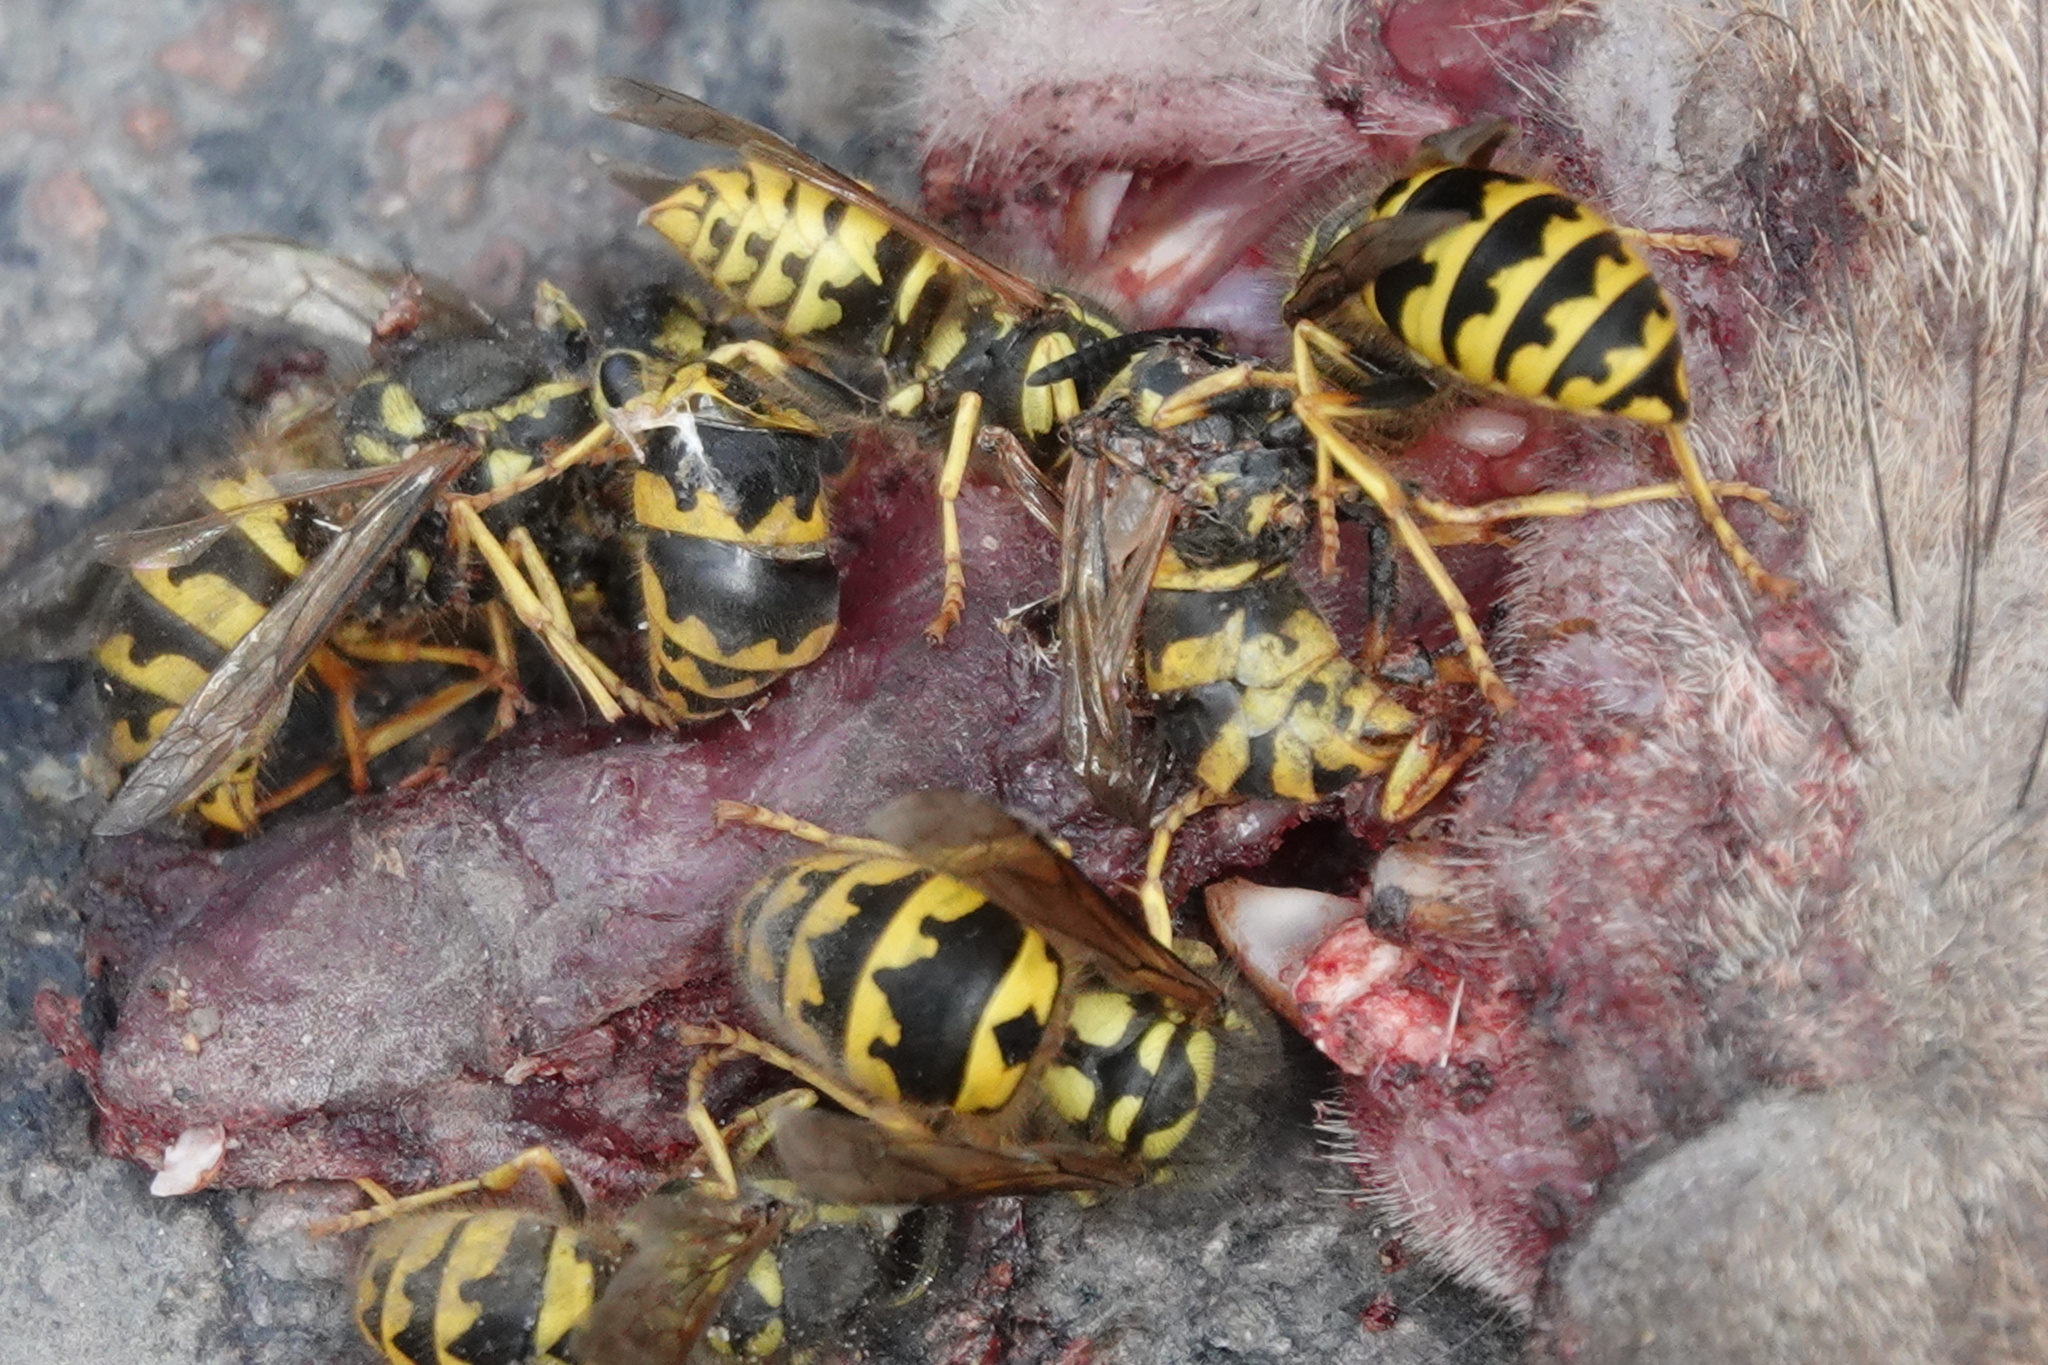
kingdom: Animalia
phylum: Arthropoda
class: Insecta
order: Hymenoptera
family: Vespidae
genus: Vespula
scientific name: Vespula pensylvanica
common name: Western yellowjacket
